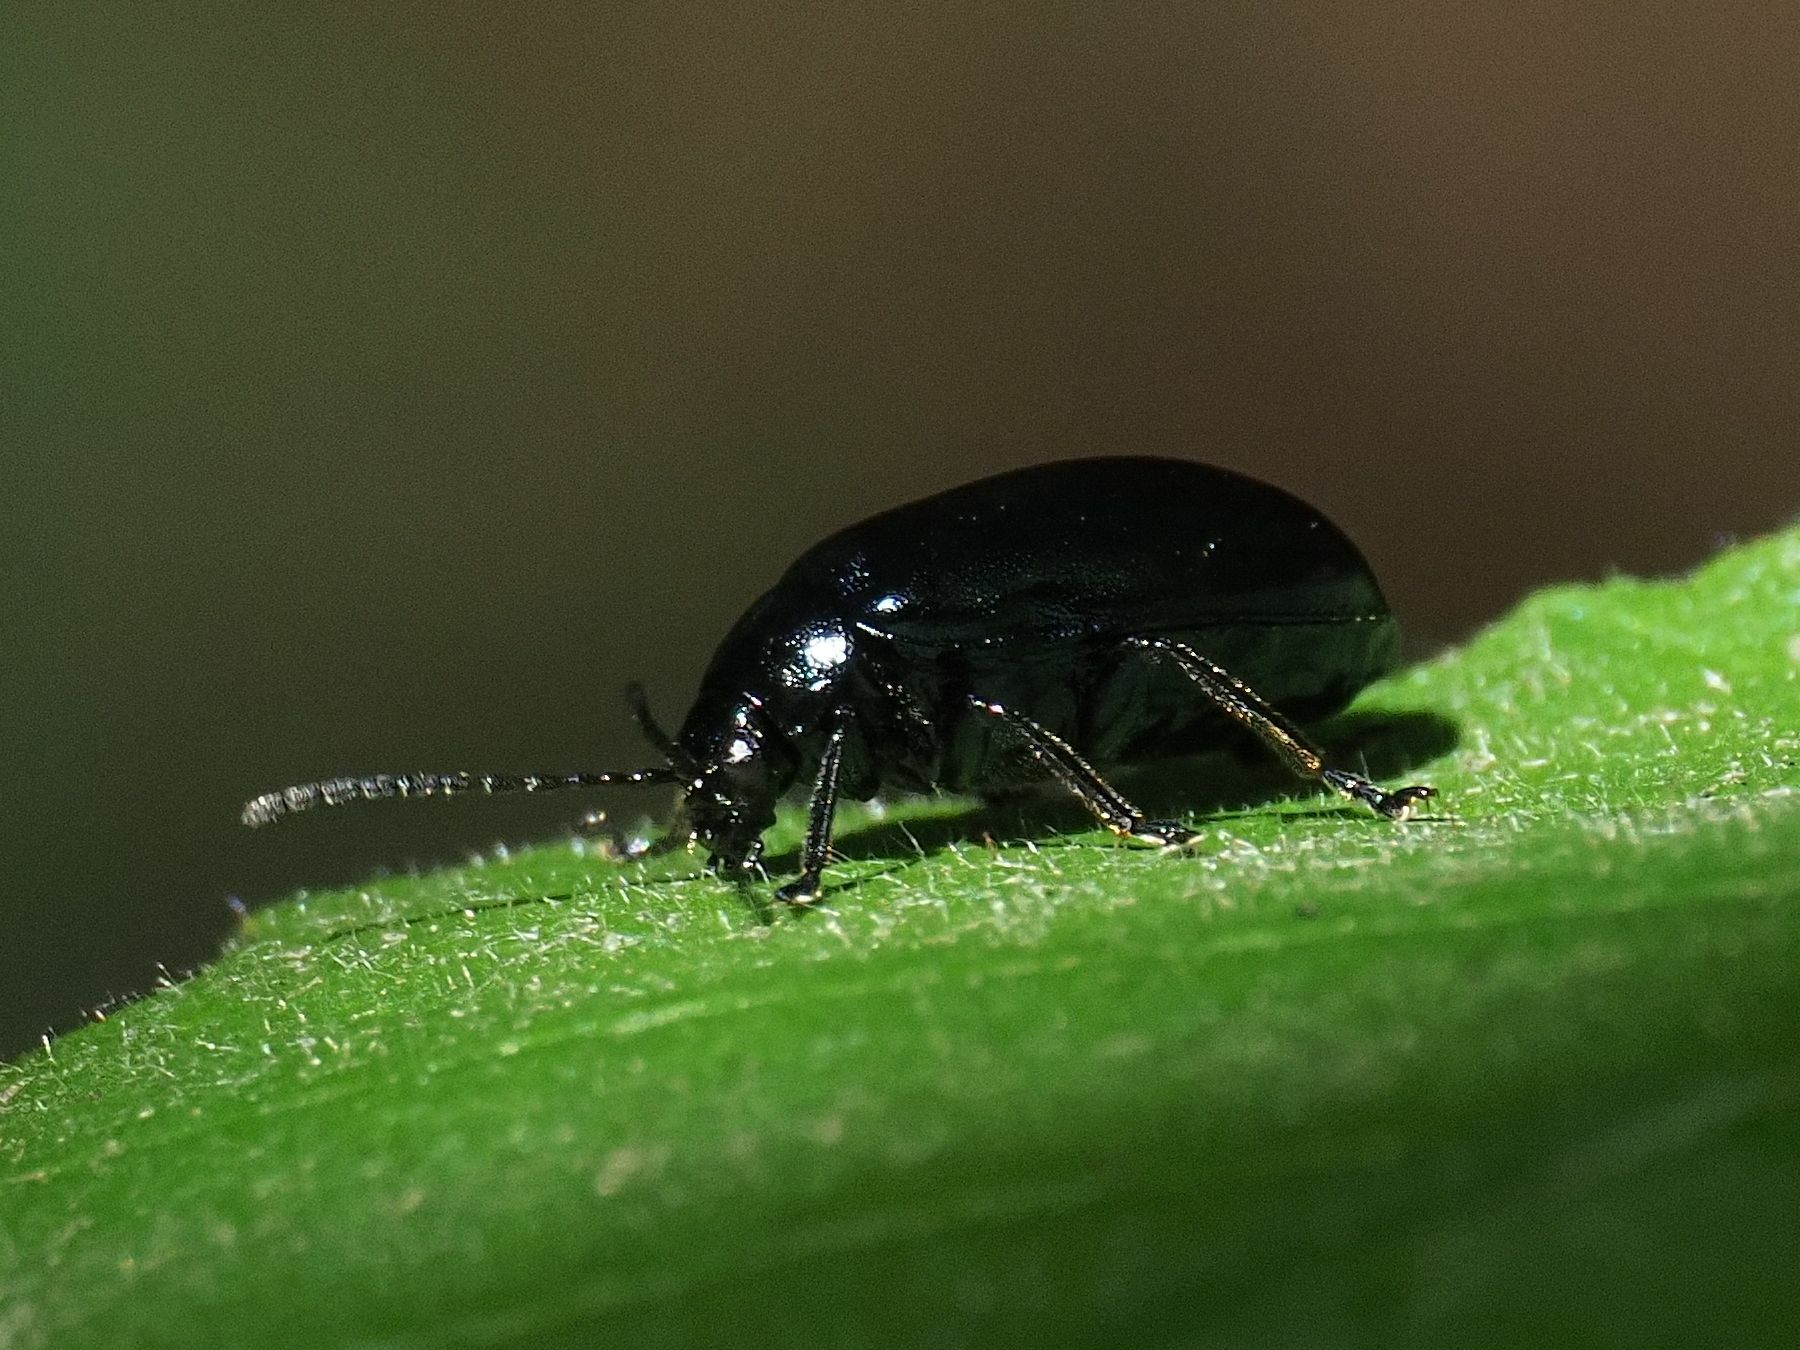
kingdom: Animalia
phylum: Arthropoda
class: Insecta
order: Coleoptera
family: Chrysomelidae
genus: Agelastica
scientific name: Agelastica alni
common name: Alder leaf beetle
